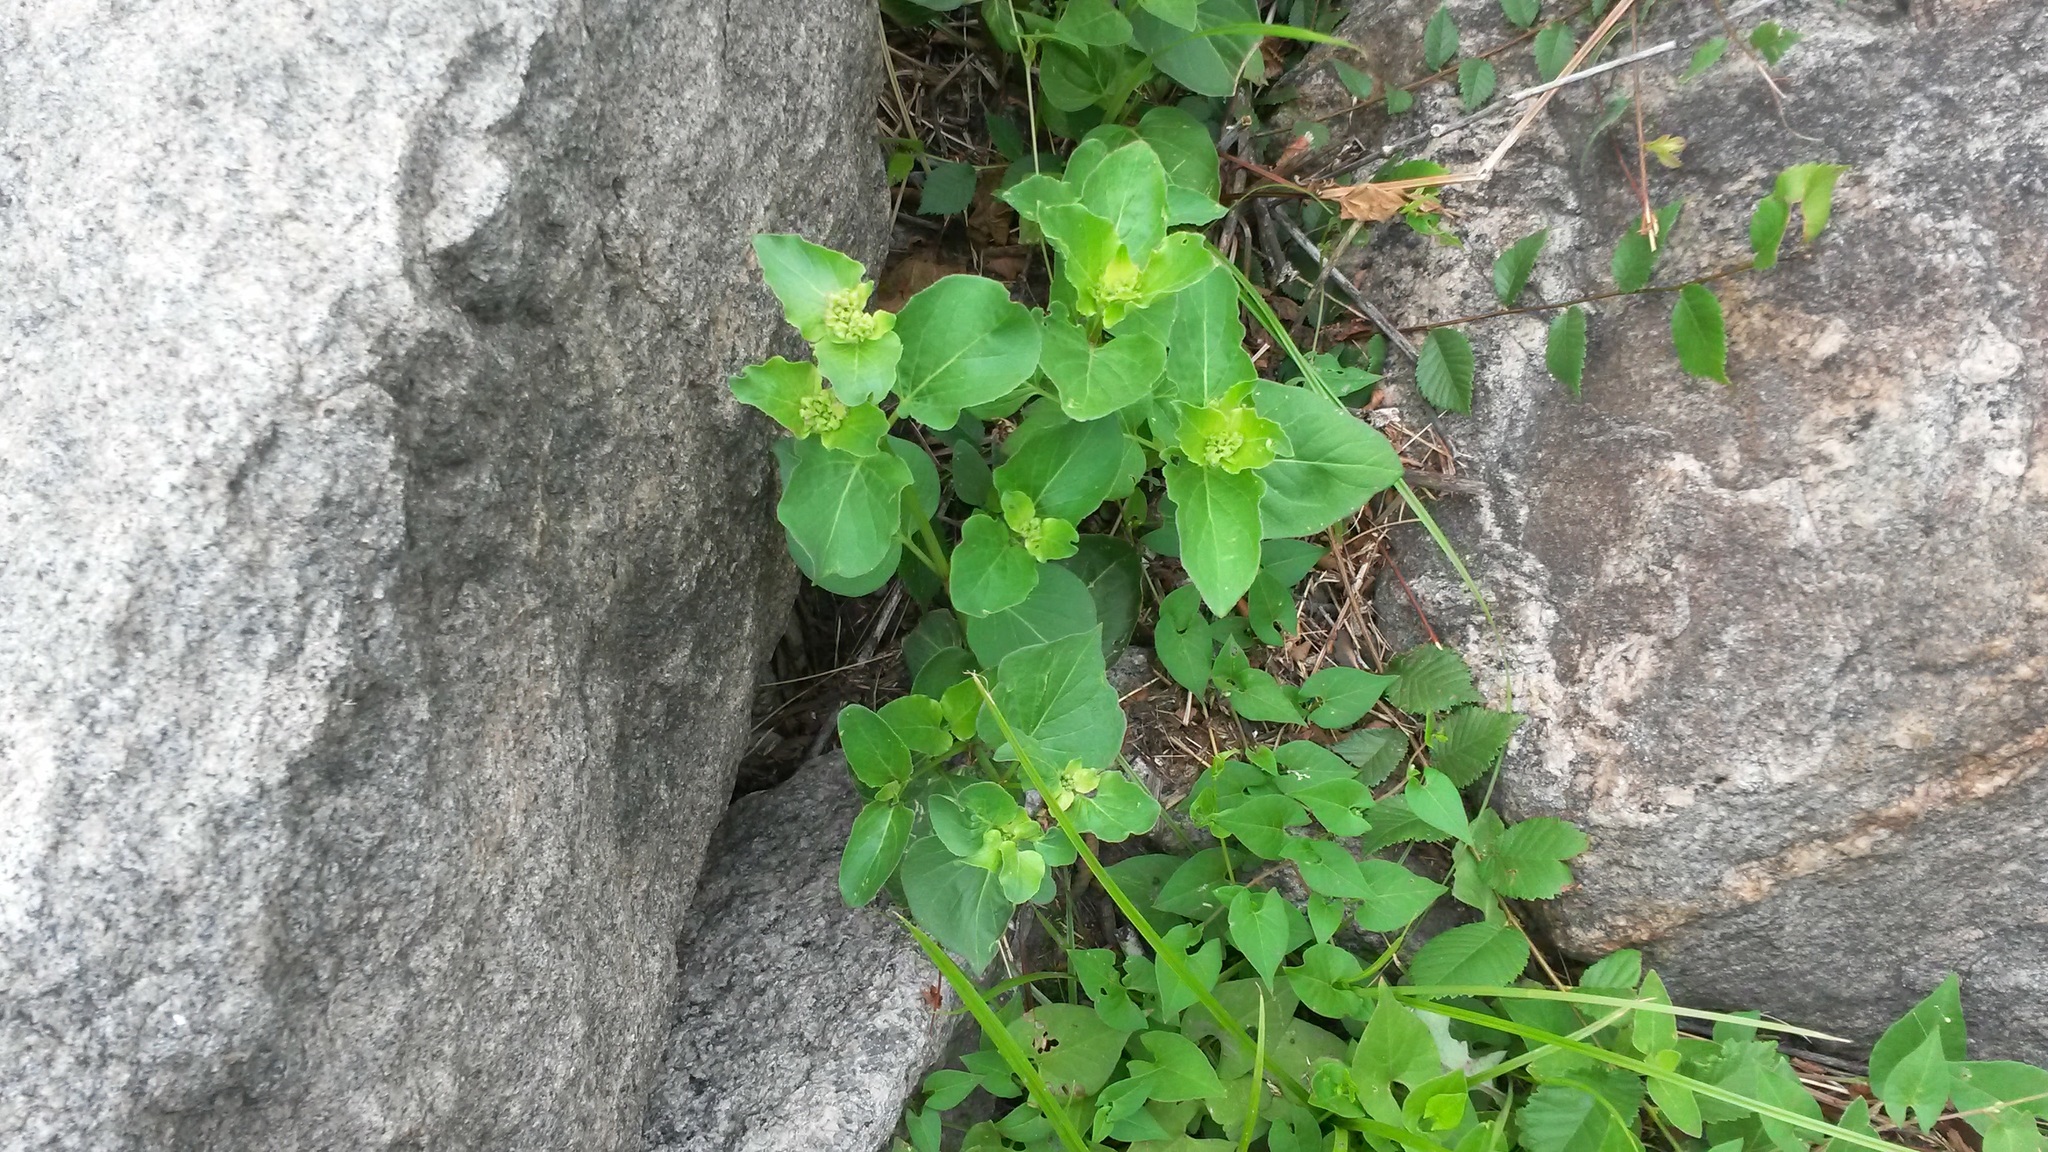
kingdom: Plantae
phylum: Tracheophyta
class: Magnoliopsida
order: Caryophyllales
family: Nyctaginaceae
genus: Mirabilis
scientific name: Mirabilis nyctaginea
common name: Umbrella wort
